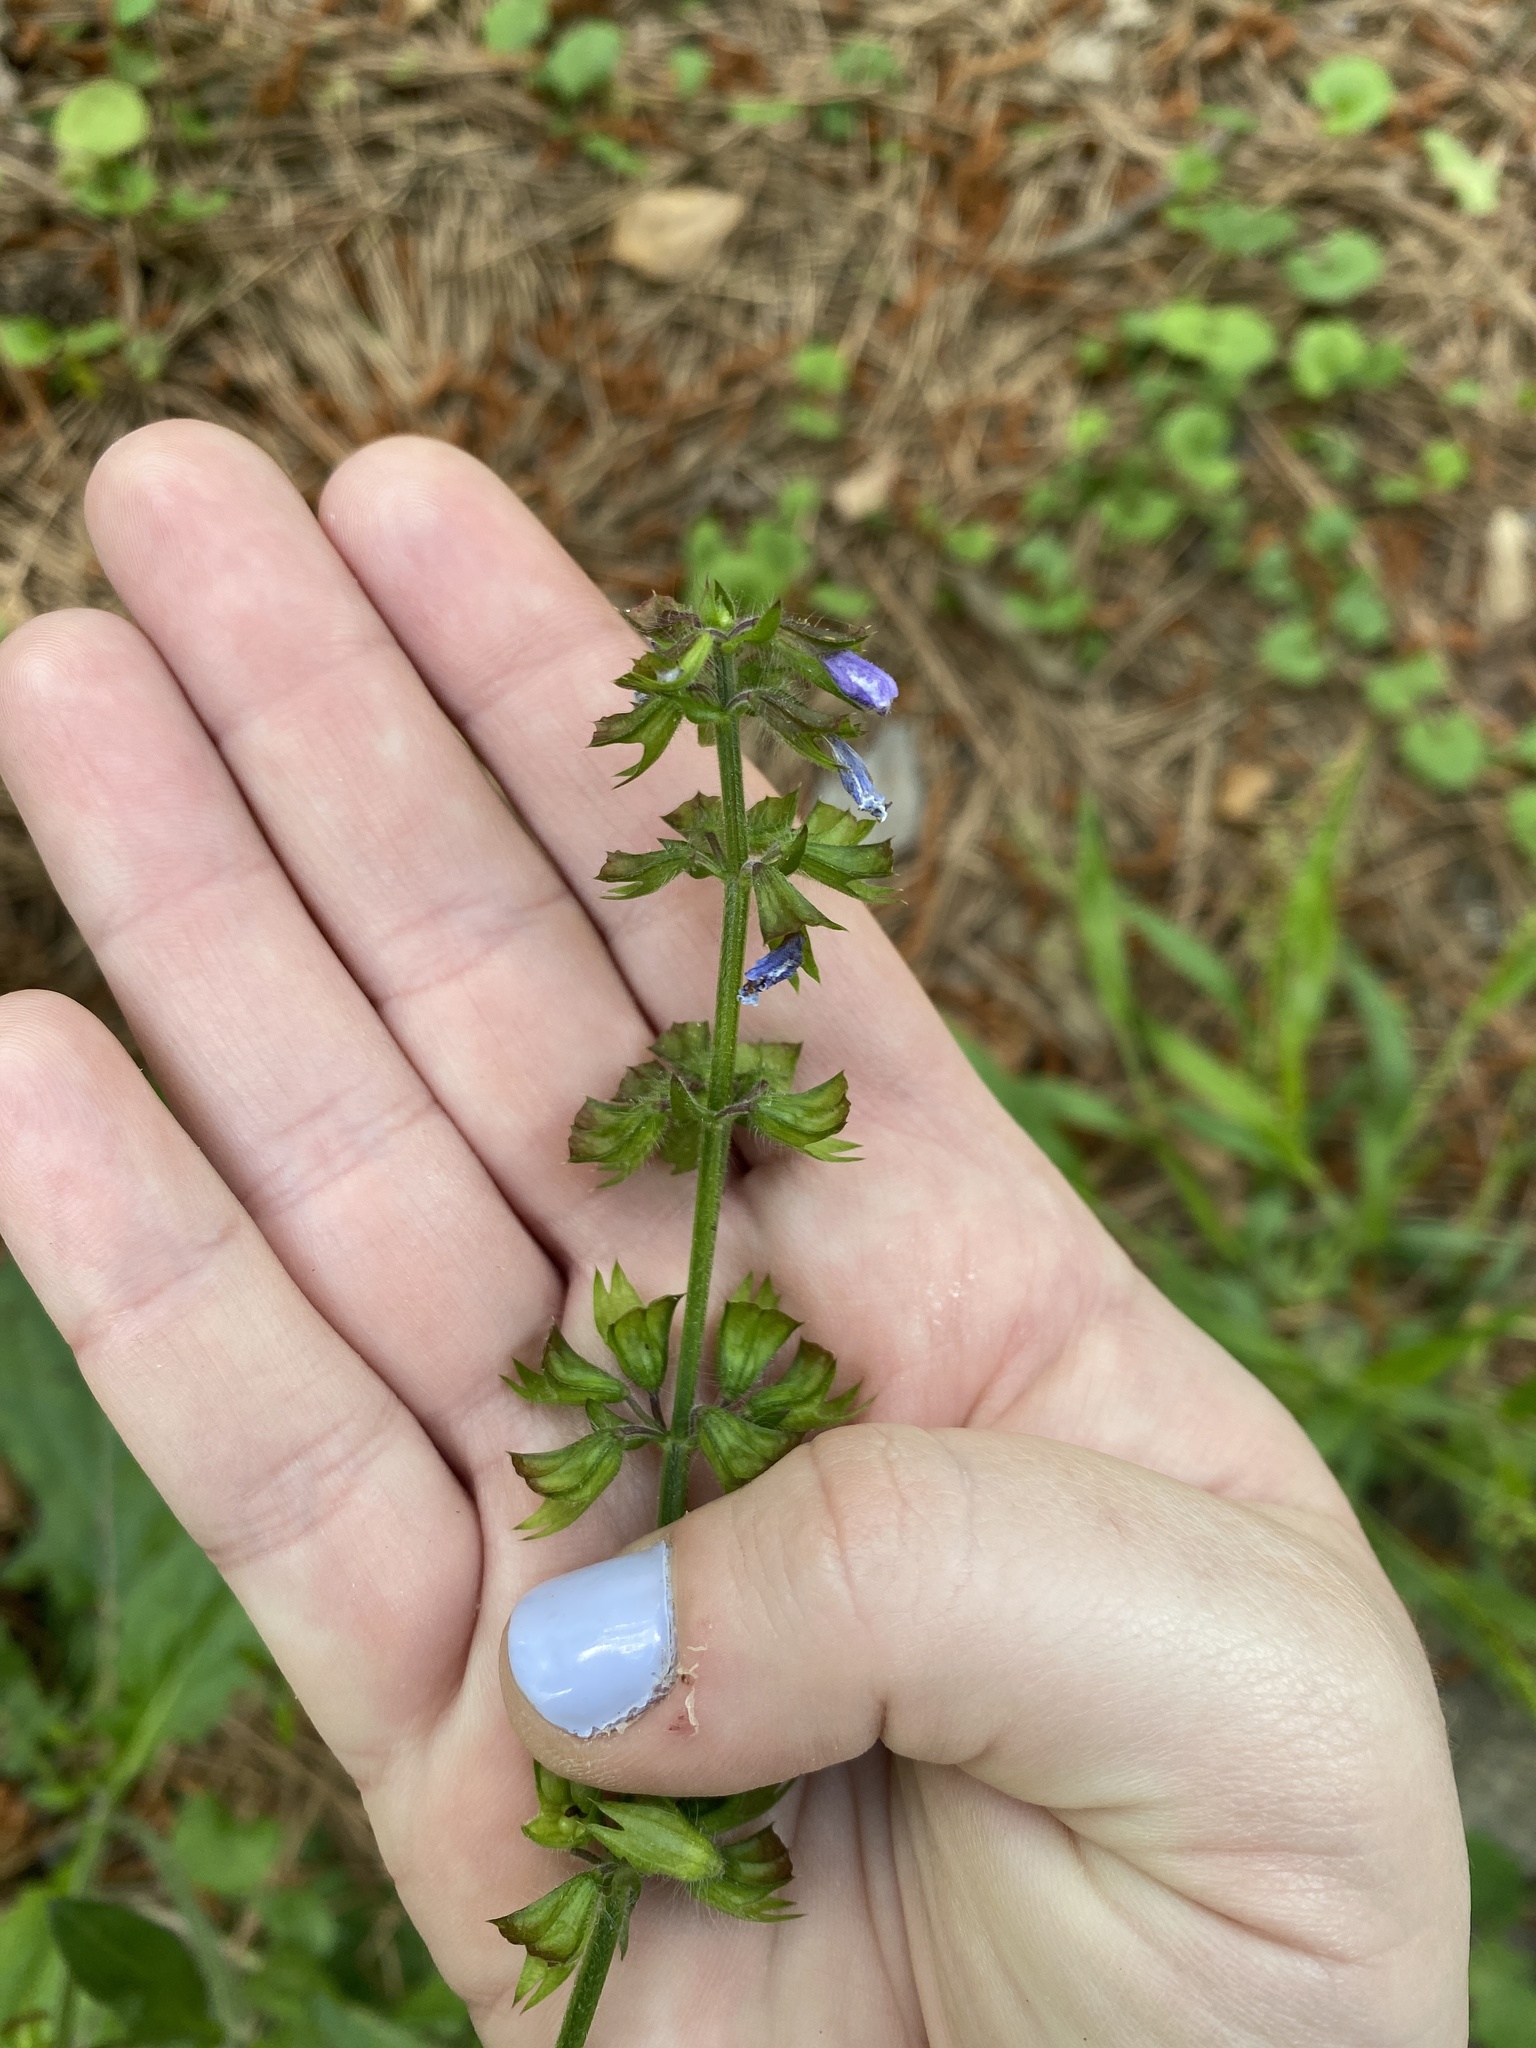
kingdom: Plantae
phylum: Tracheophyta
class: Magnoliopsida
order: Lamiales
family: Lamiaceae
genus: Salvia
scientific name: Salvia lyrata
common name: Cancerweed
